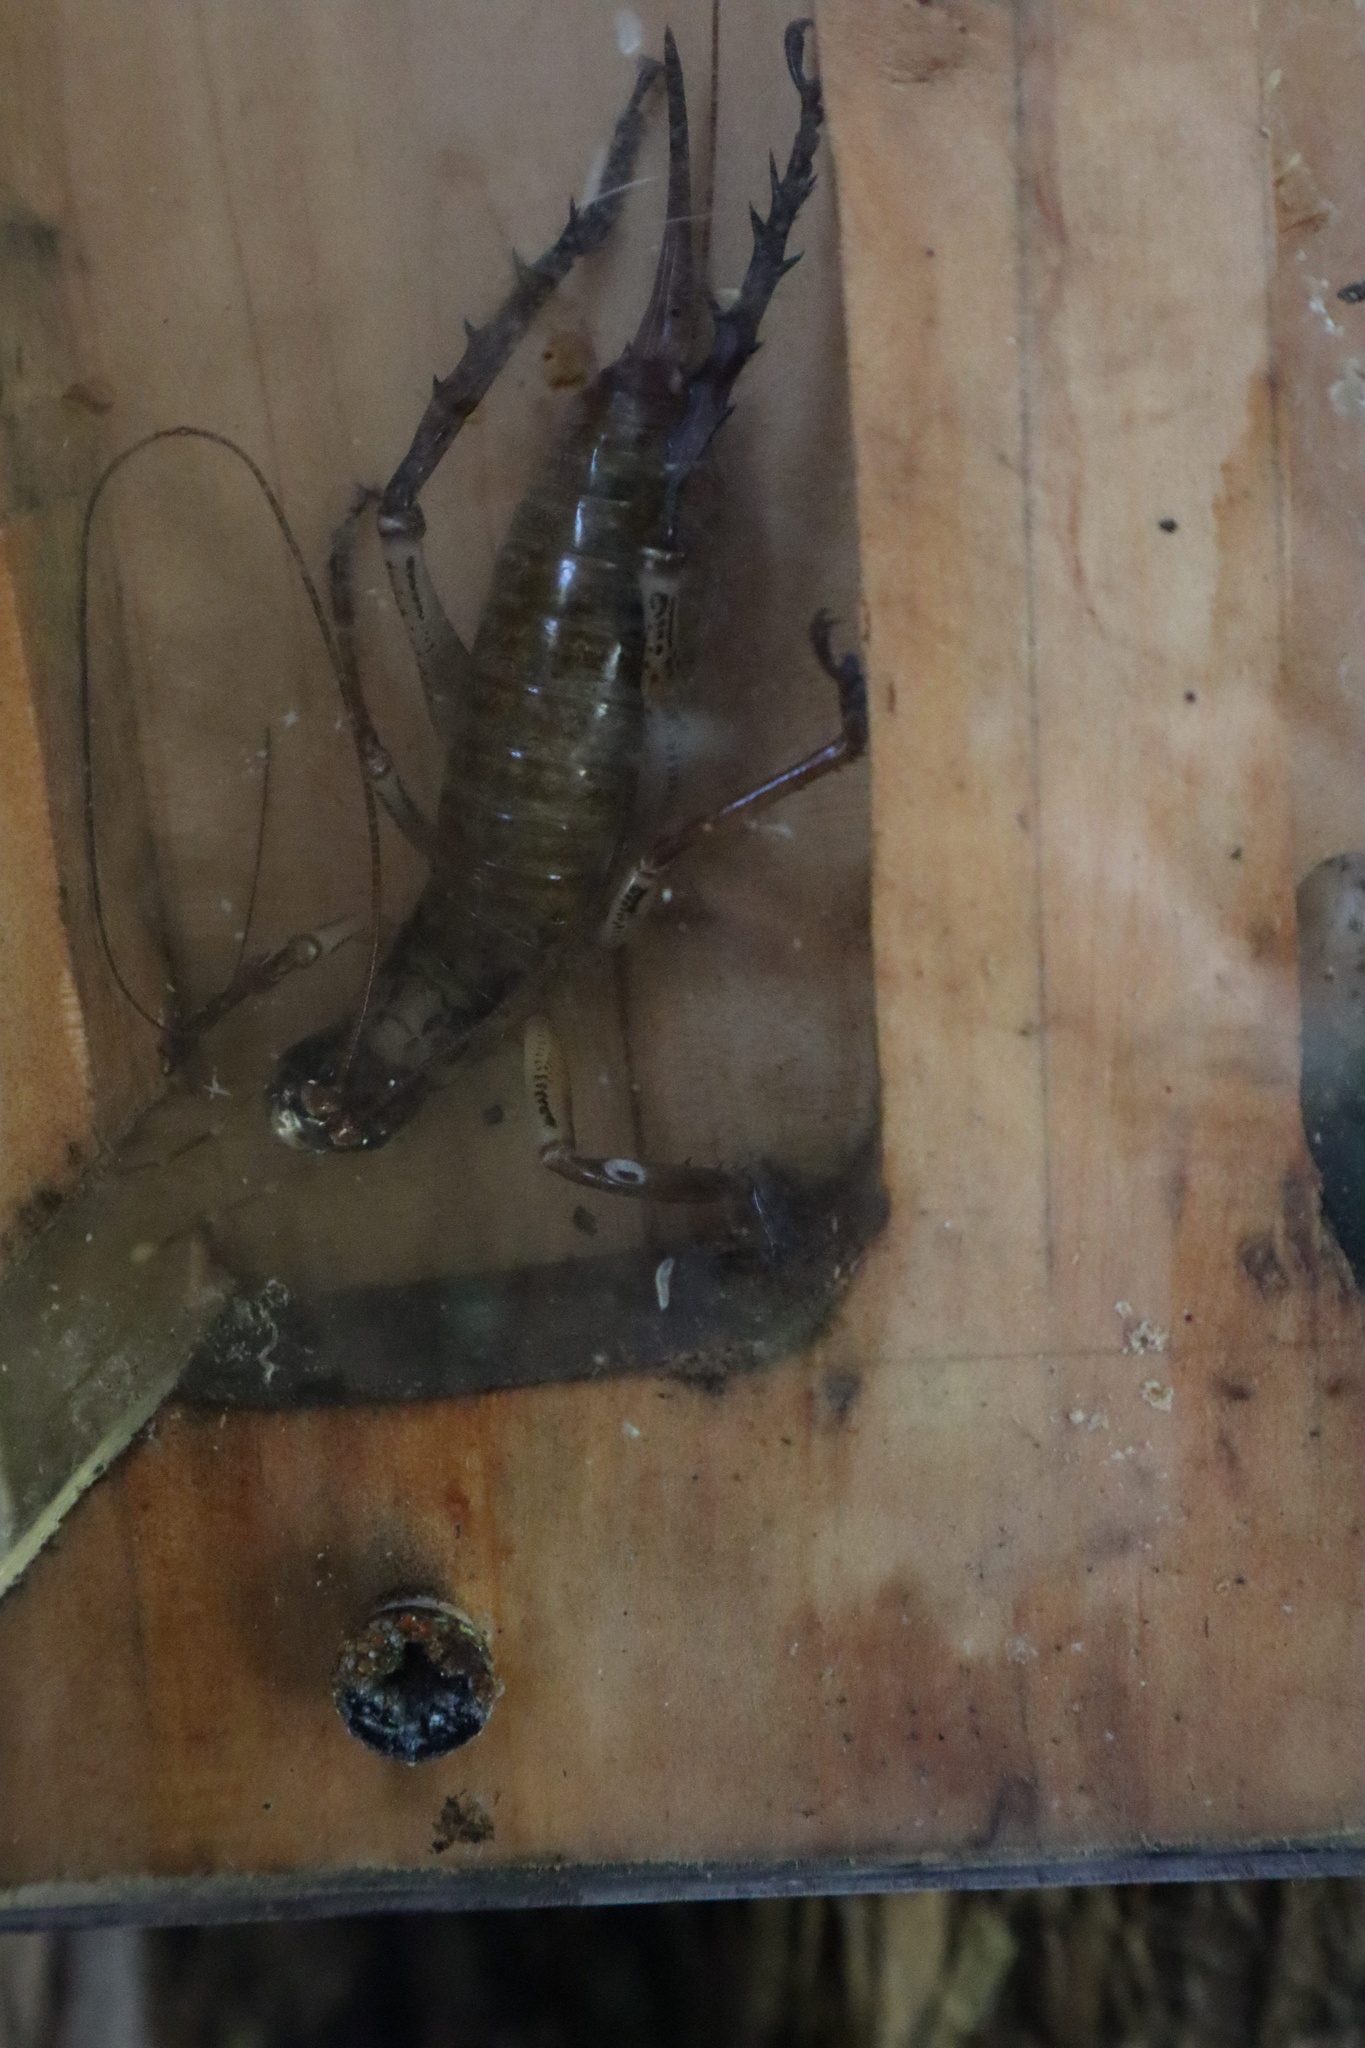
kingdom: Animalia
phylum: Arthropoda
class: Insecta
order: Orthoptera
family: Anostostomatidae
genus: Hemideina
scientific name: Hemideina thoracica
